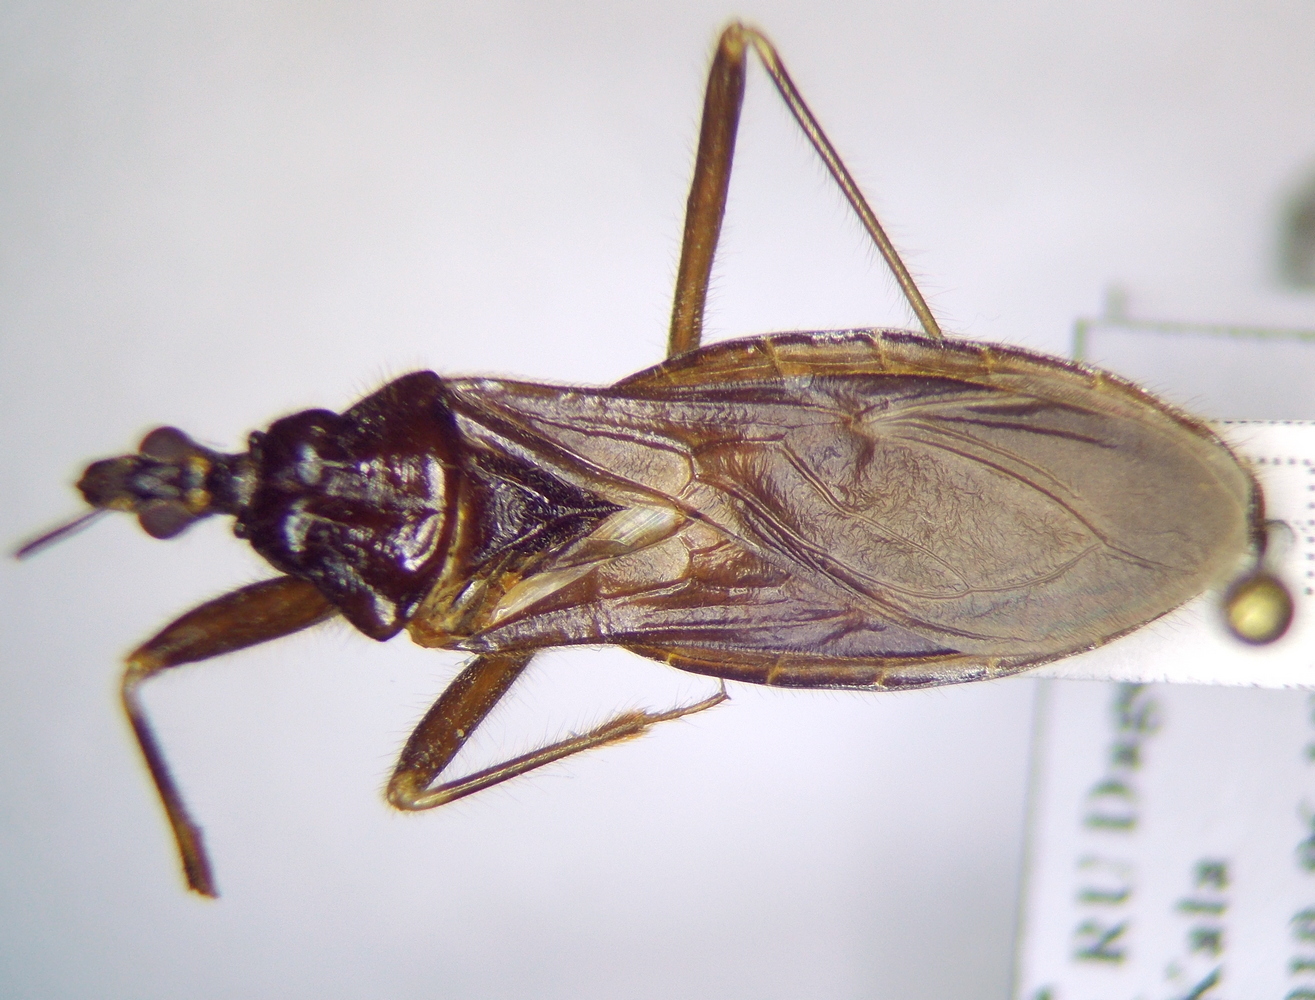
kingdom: Animalia
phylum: Arthropoda
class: Insecta
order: Hemiptera
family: Reduviidae
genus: Reduvius
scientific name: Reduvius personatus
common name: Masked hunter
